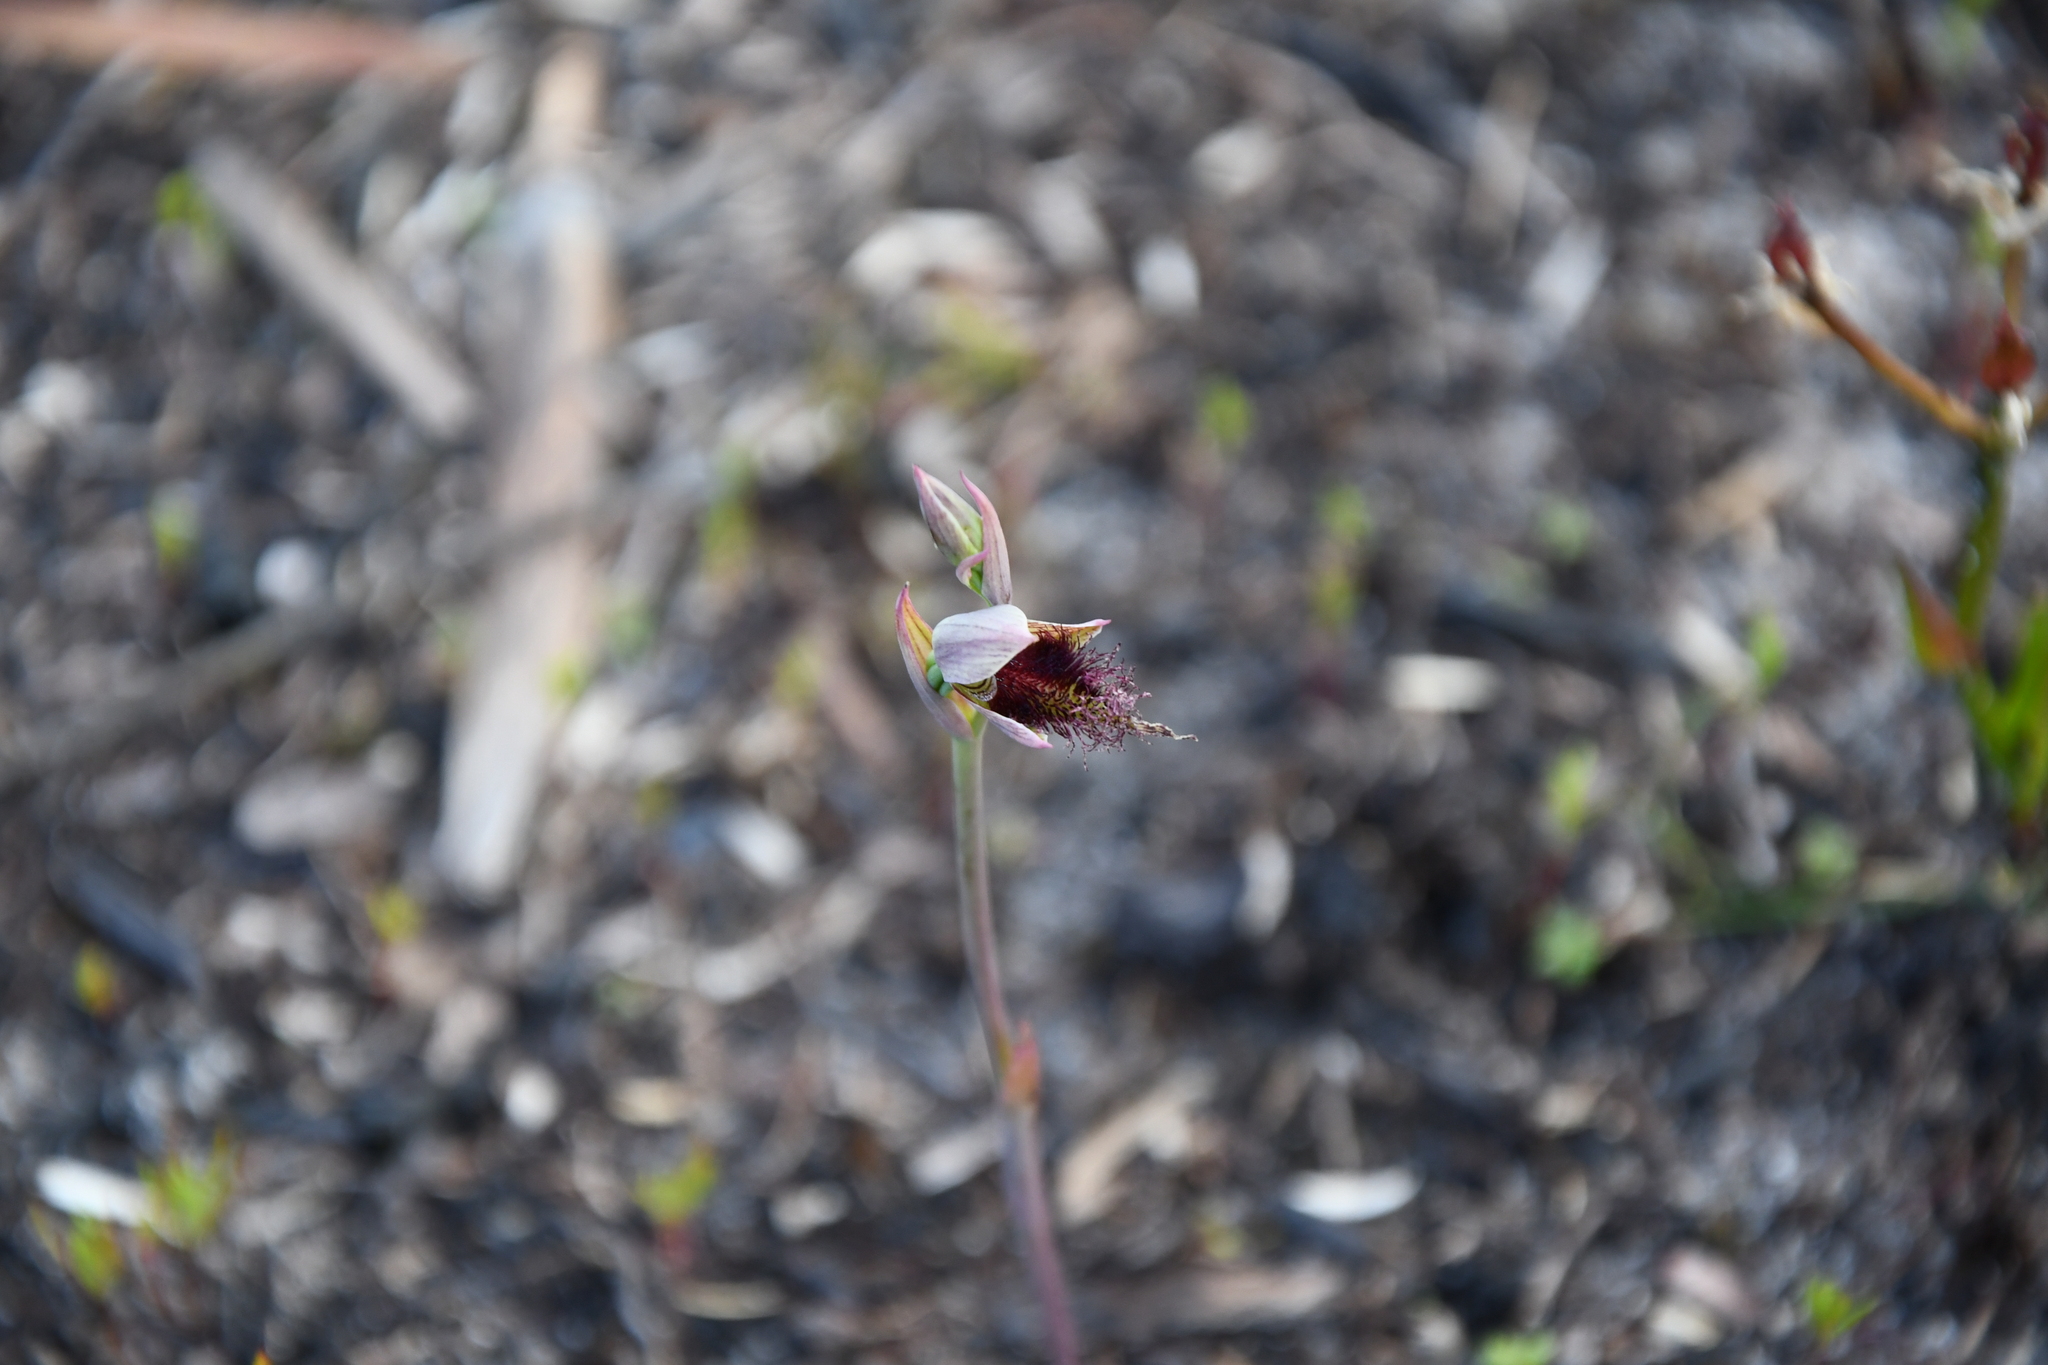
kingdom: Plantae
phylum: Tracheophyta
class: Liliopsida
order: Asparagales
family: Orchidaceae
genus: Calochilus
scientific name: Calochilus uliginosus
